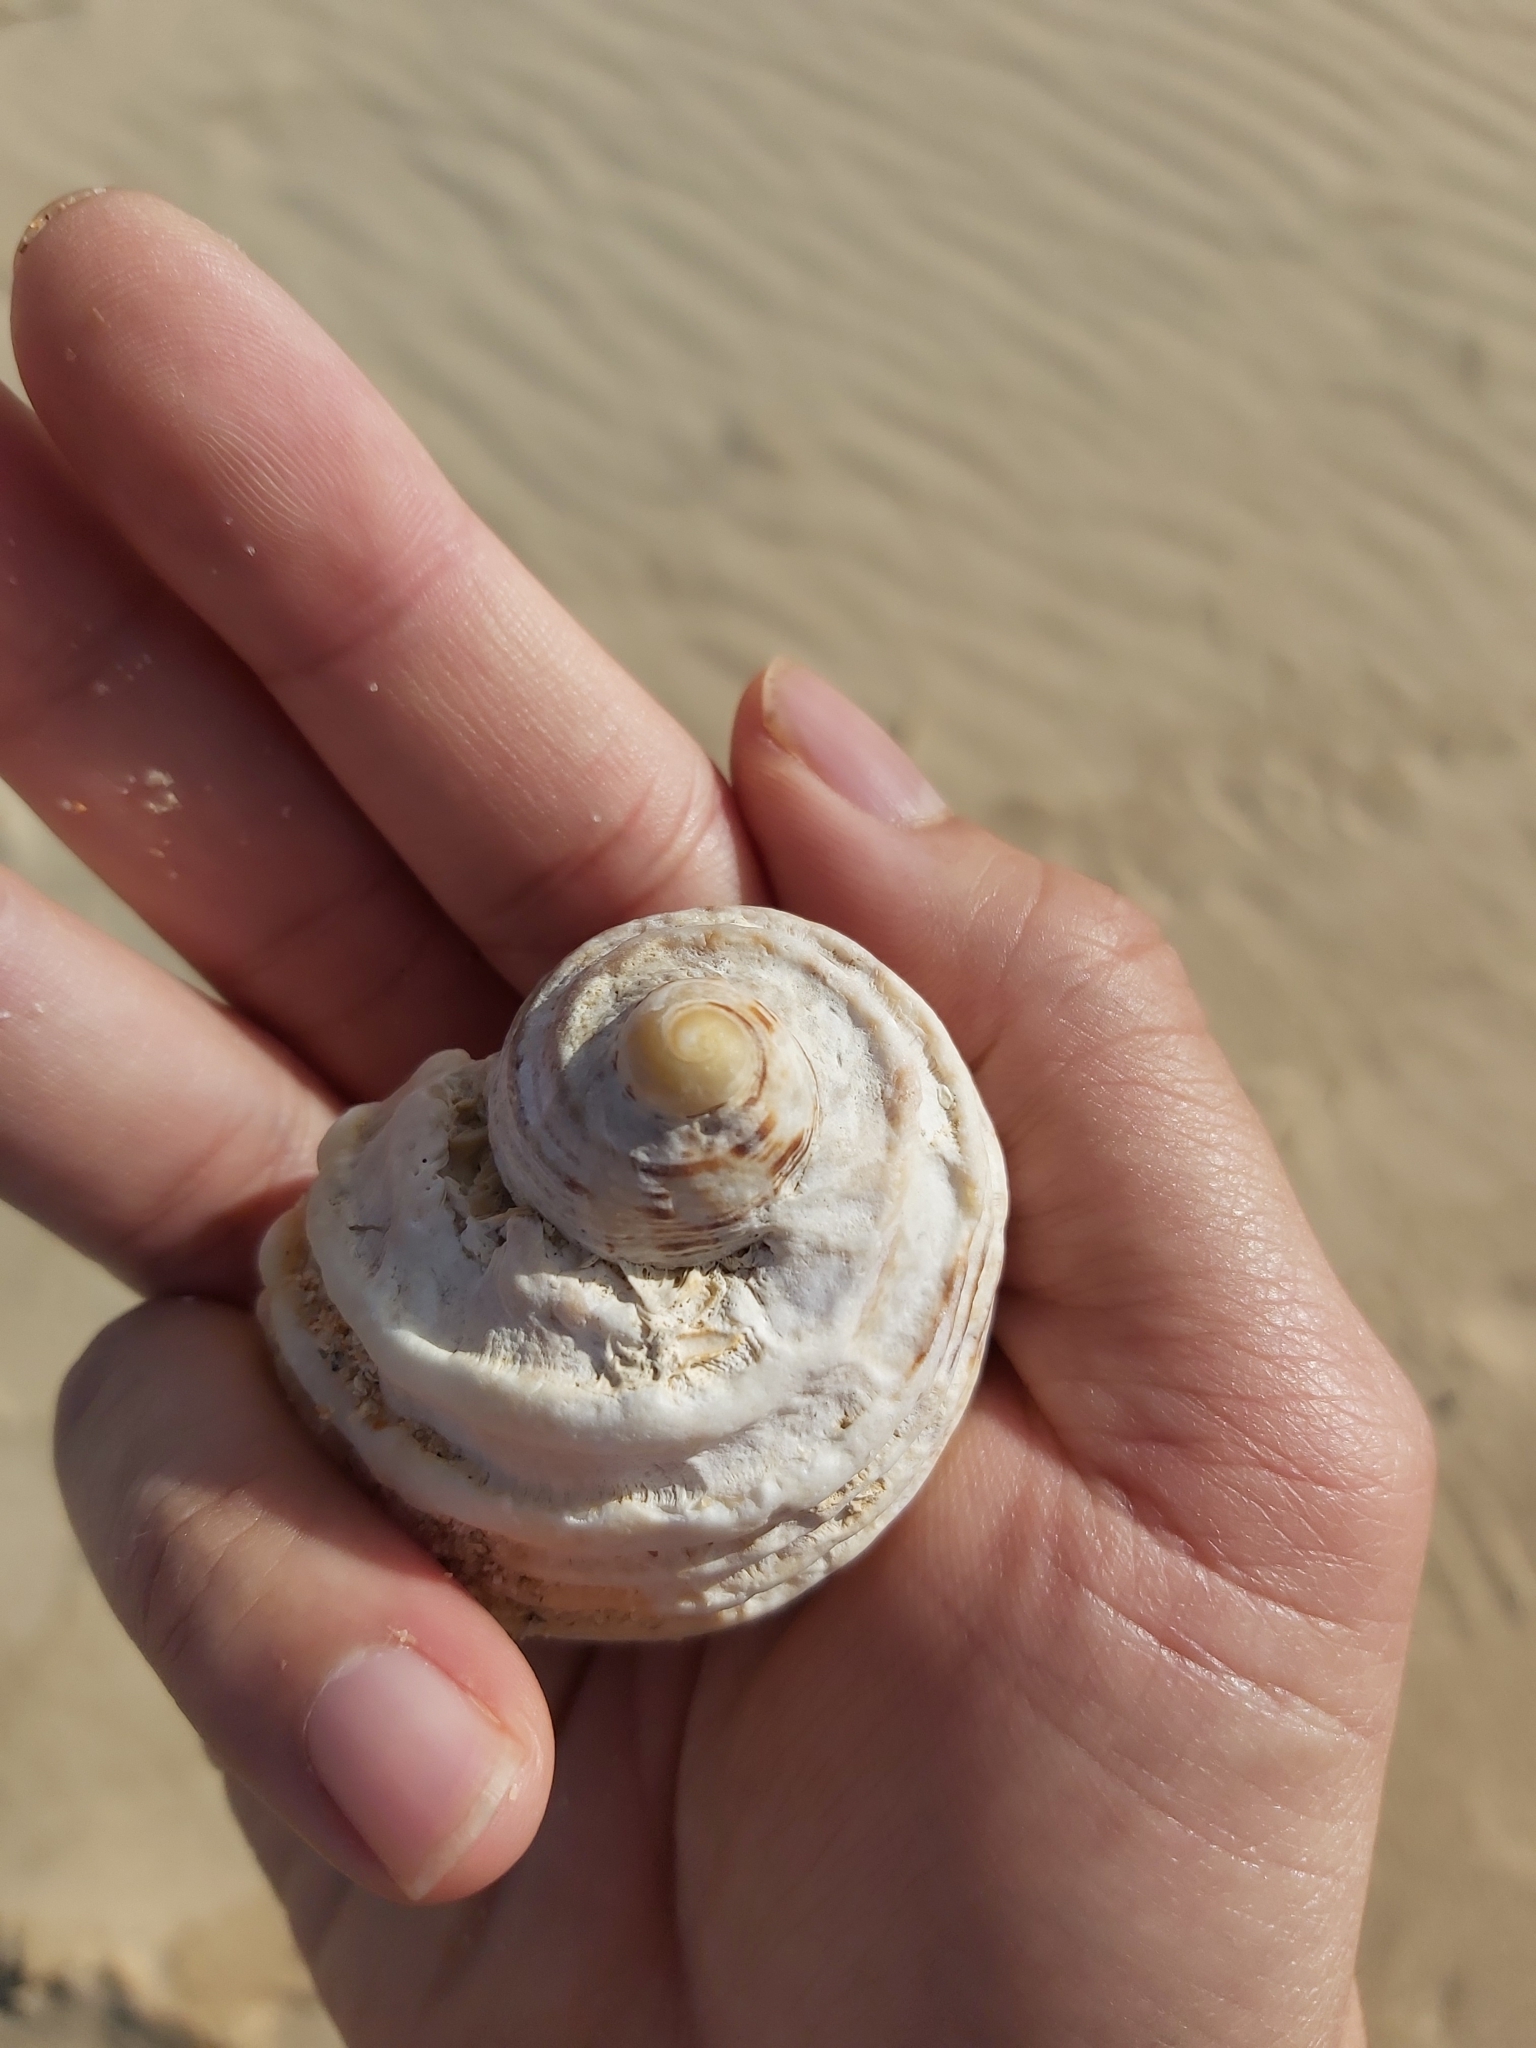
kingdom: Animalia
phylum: Mollusca
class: Gastropoda
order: Neogastropoda
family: Muricidae
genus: Dicathais
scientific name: Dicathais orbita
